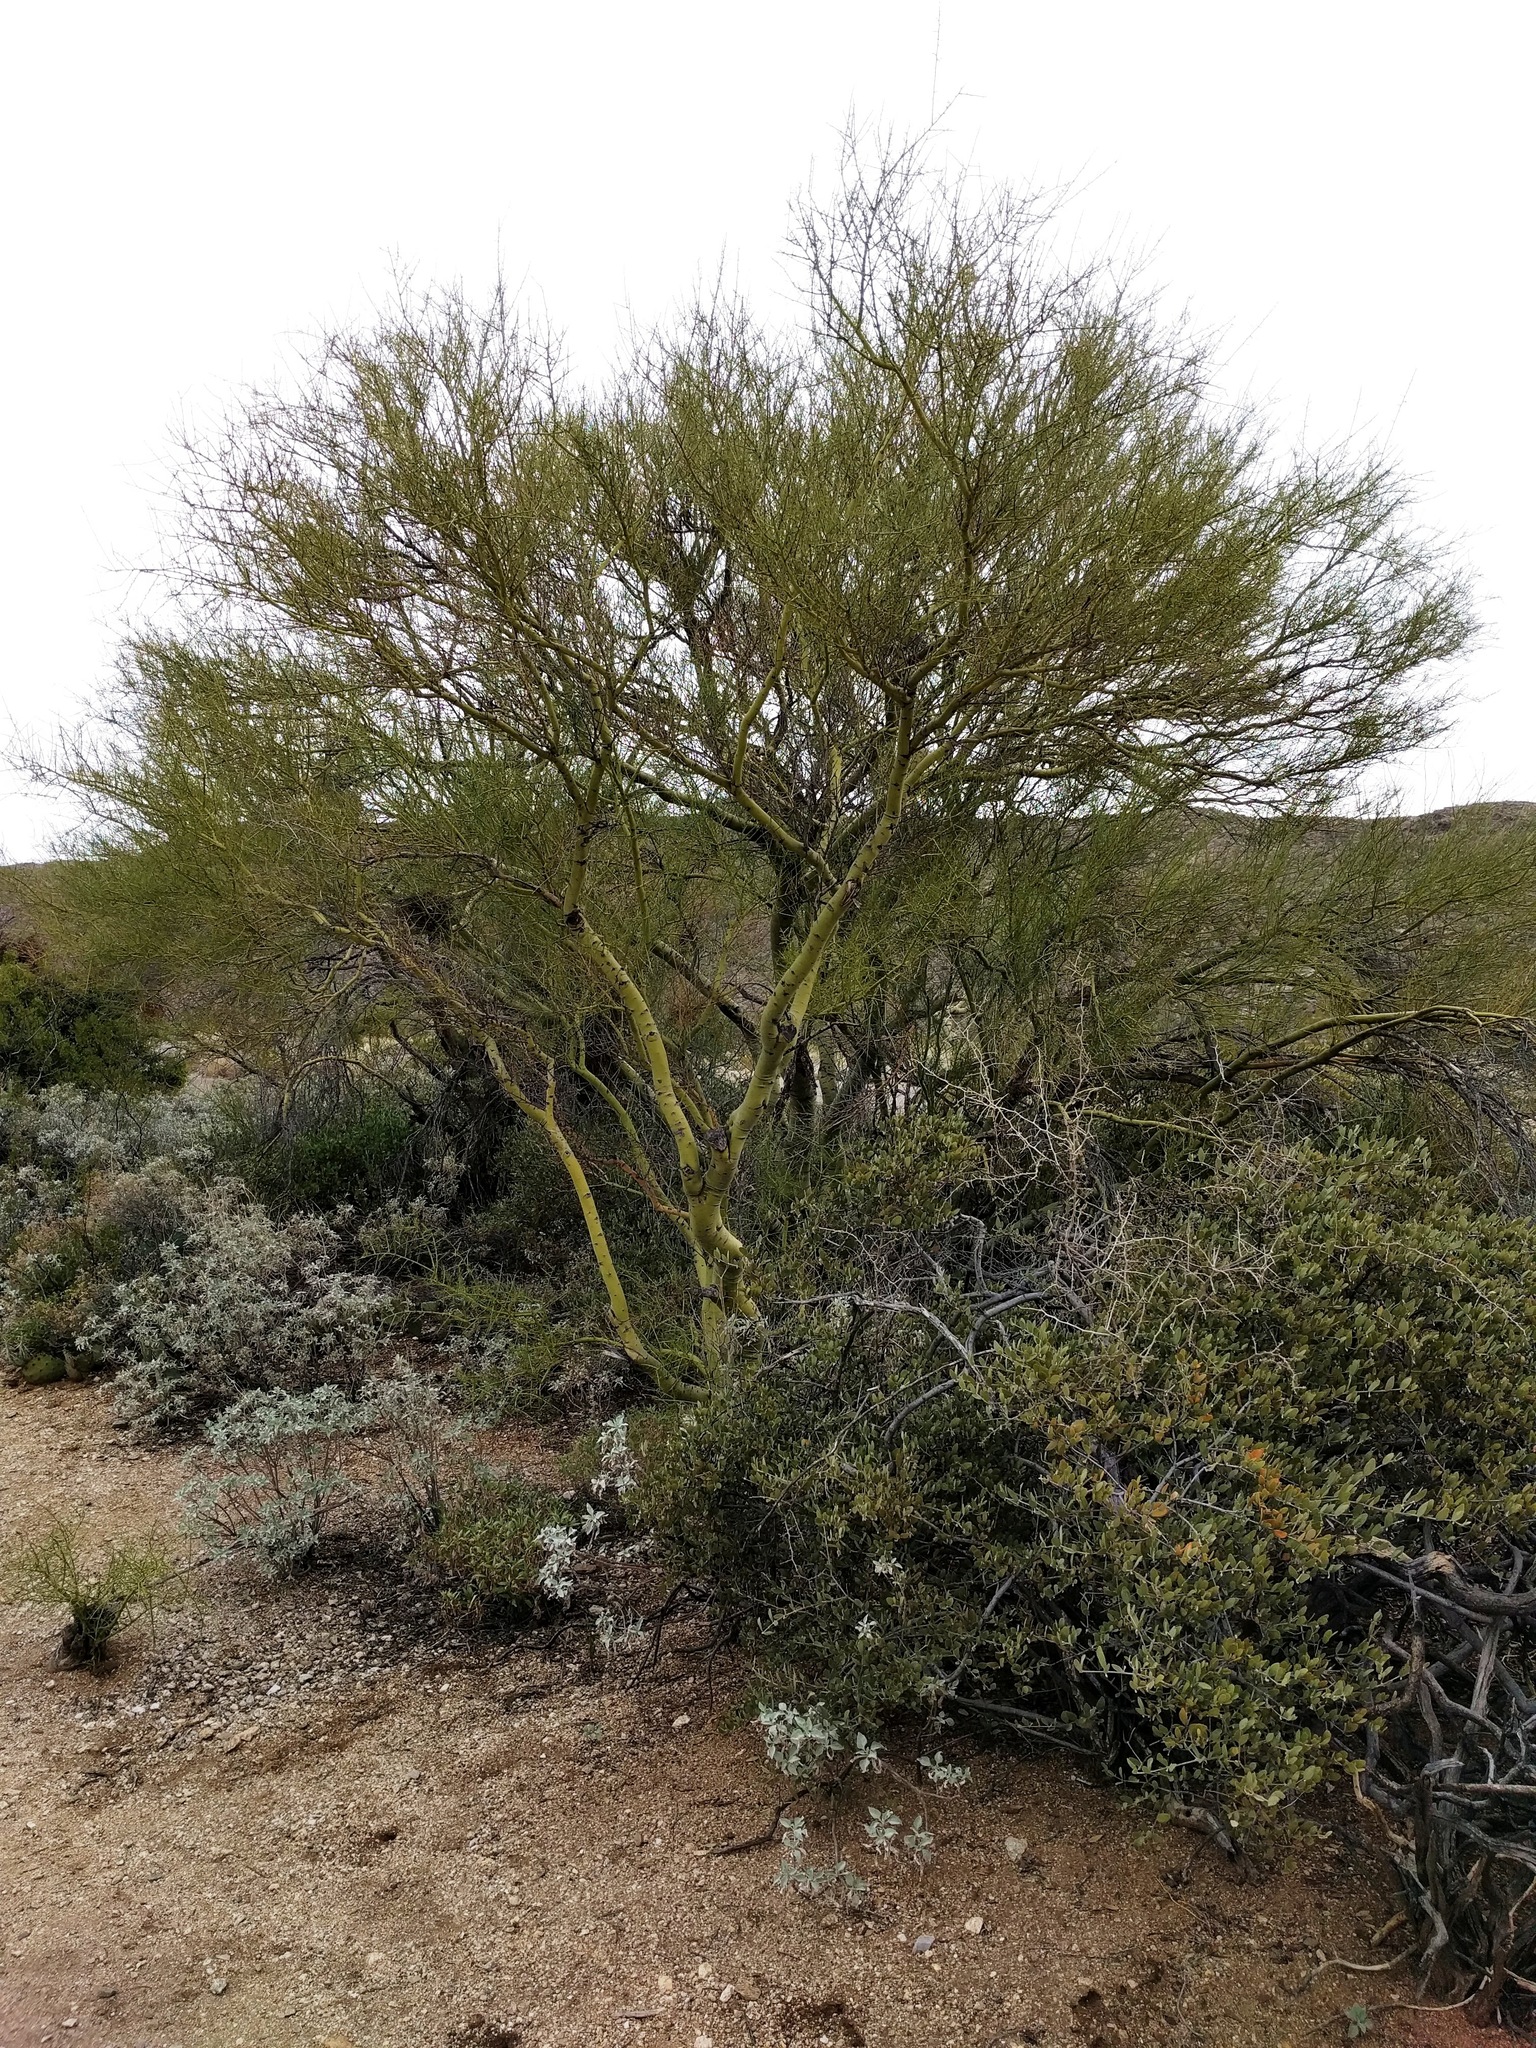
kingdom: Plantae
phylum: Tracheophyta
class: Magnoliopsida
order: Fabales
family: Fabaceae
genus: Parkinsonia
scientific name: Parkinsonia microphylla
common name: Yellow paloverde
